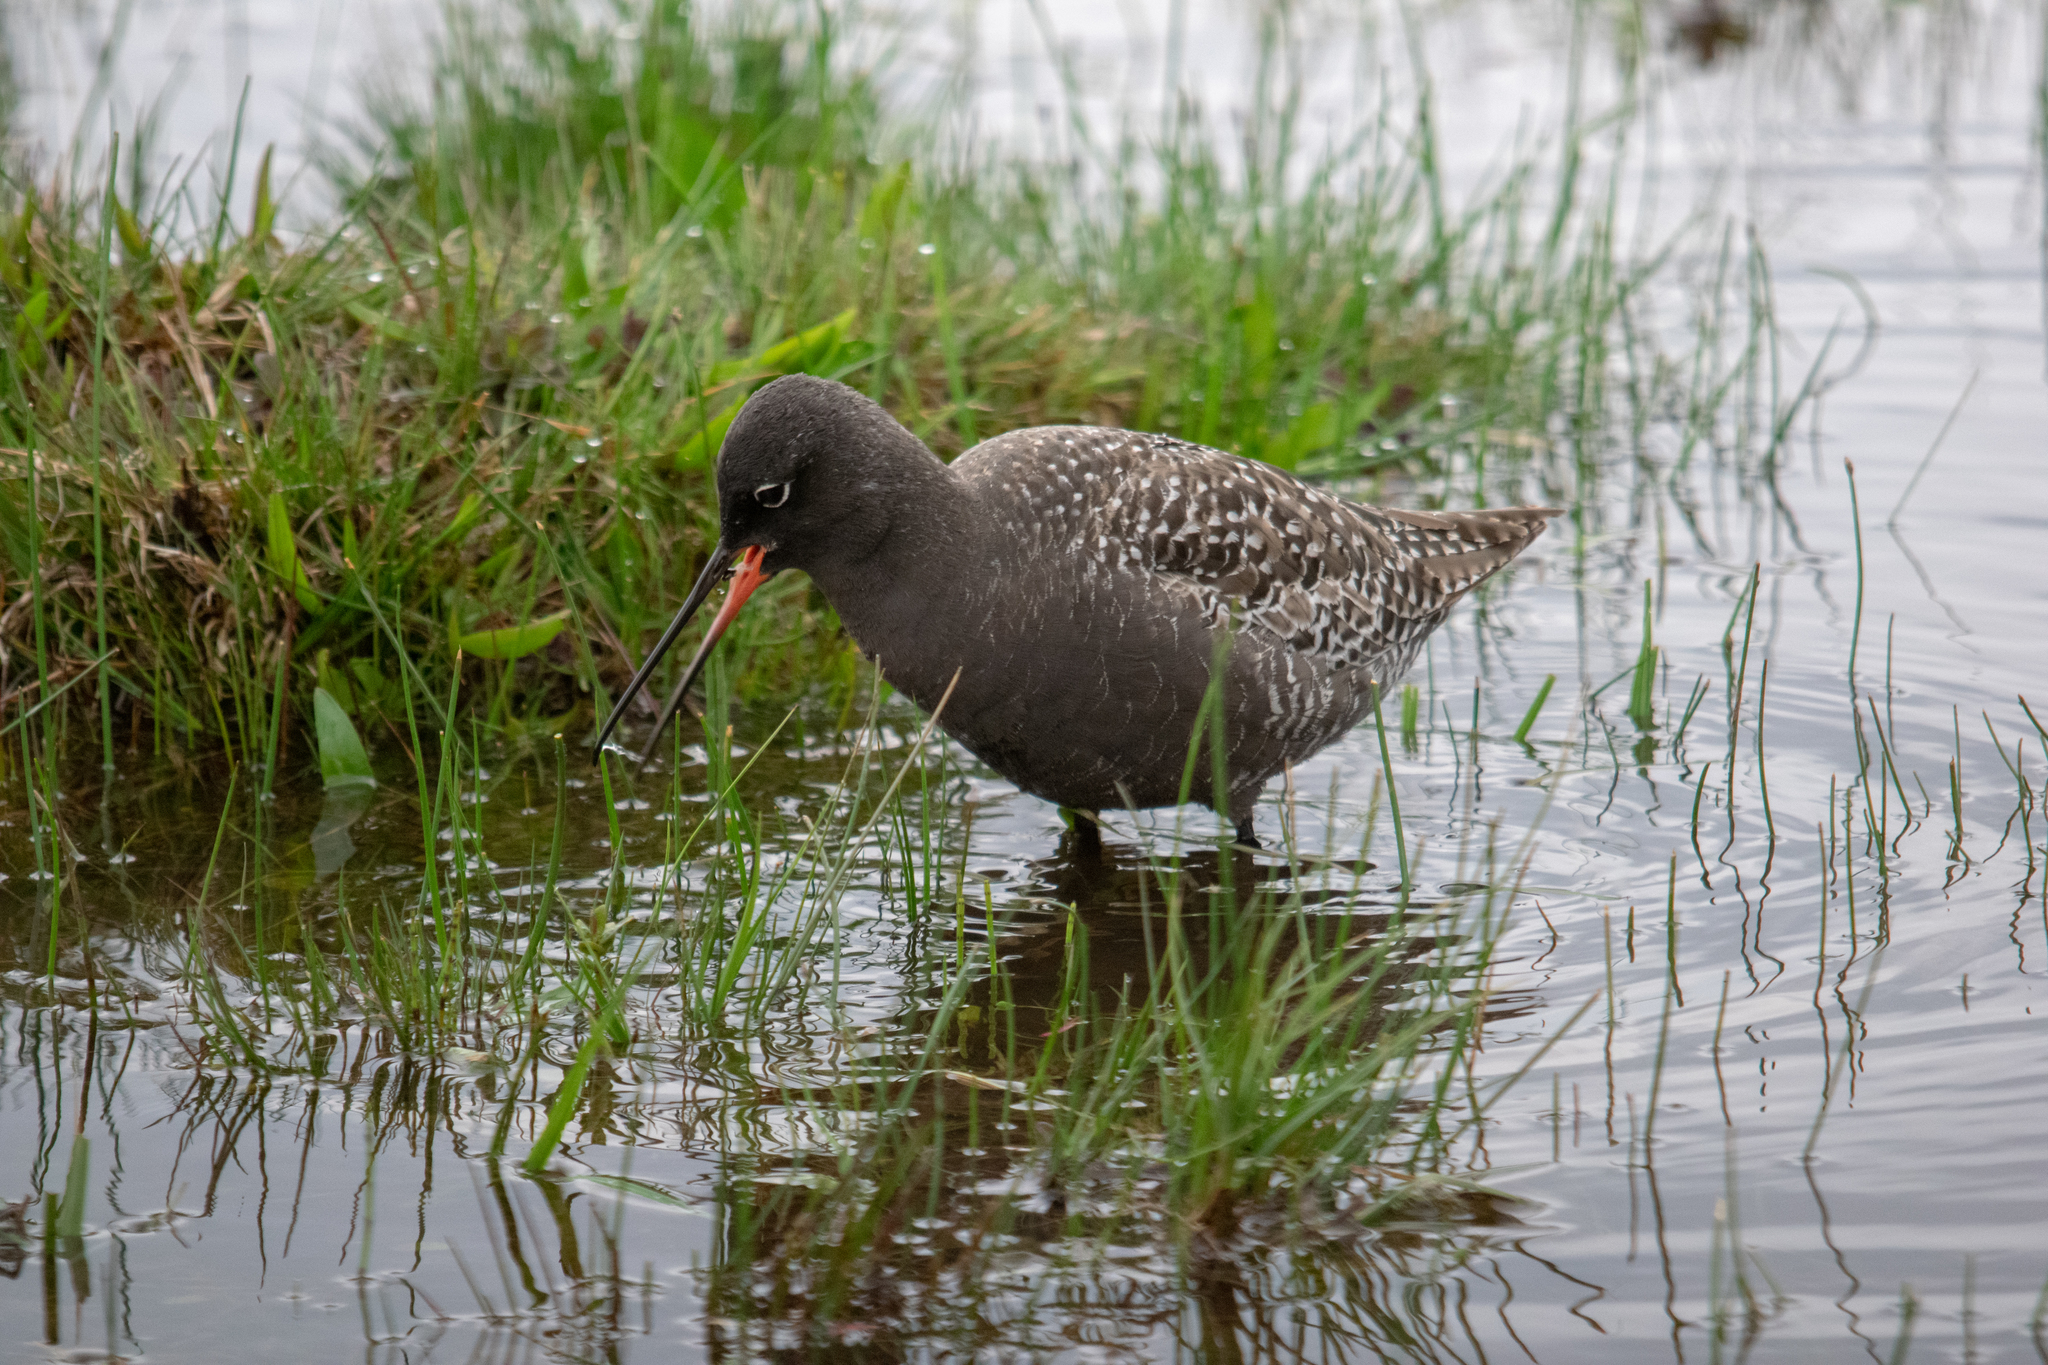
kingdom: Animalia
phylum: Chordata
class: Aves
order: Charadriiformes
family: Scolopacidae
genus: Tringa
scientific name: Tringa erythropus
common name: Spotted redshank
